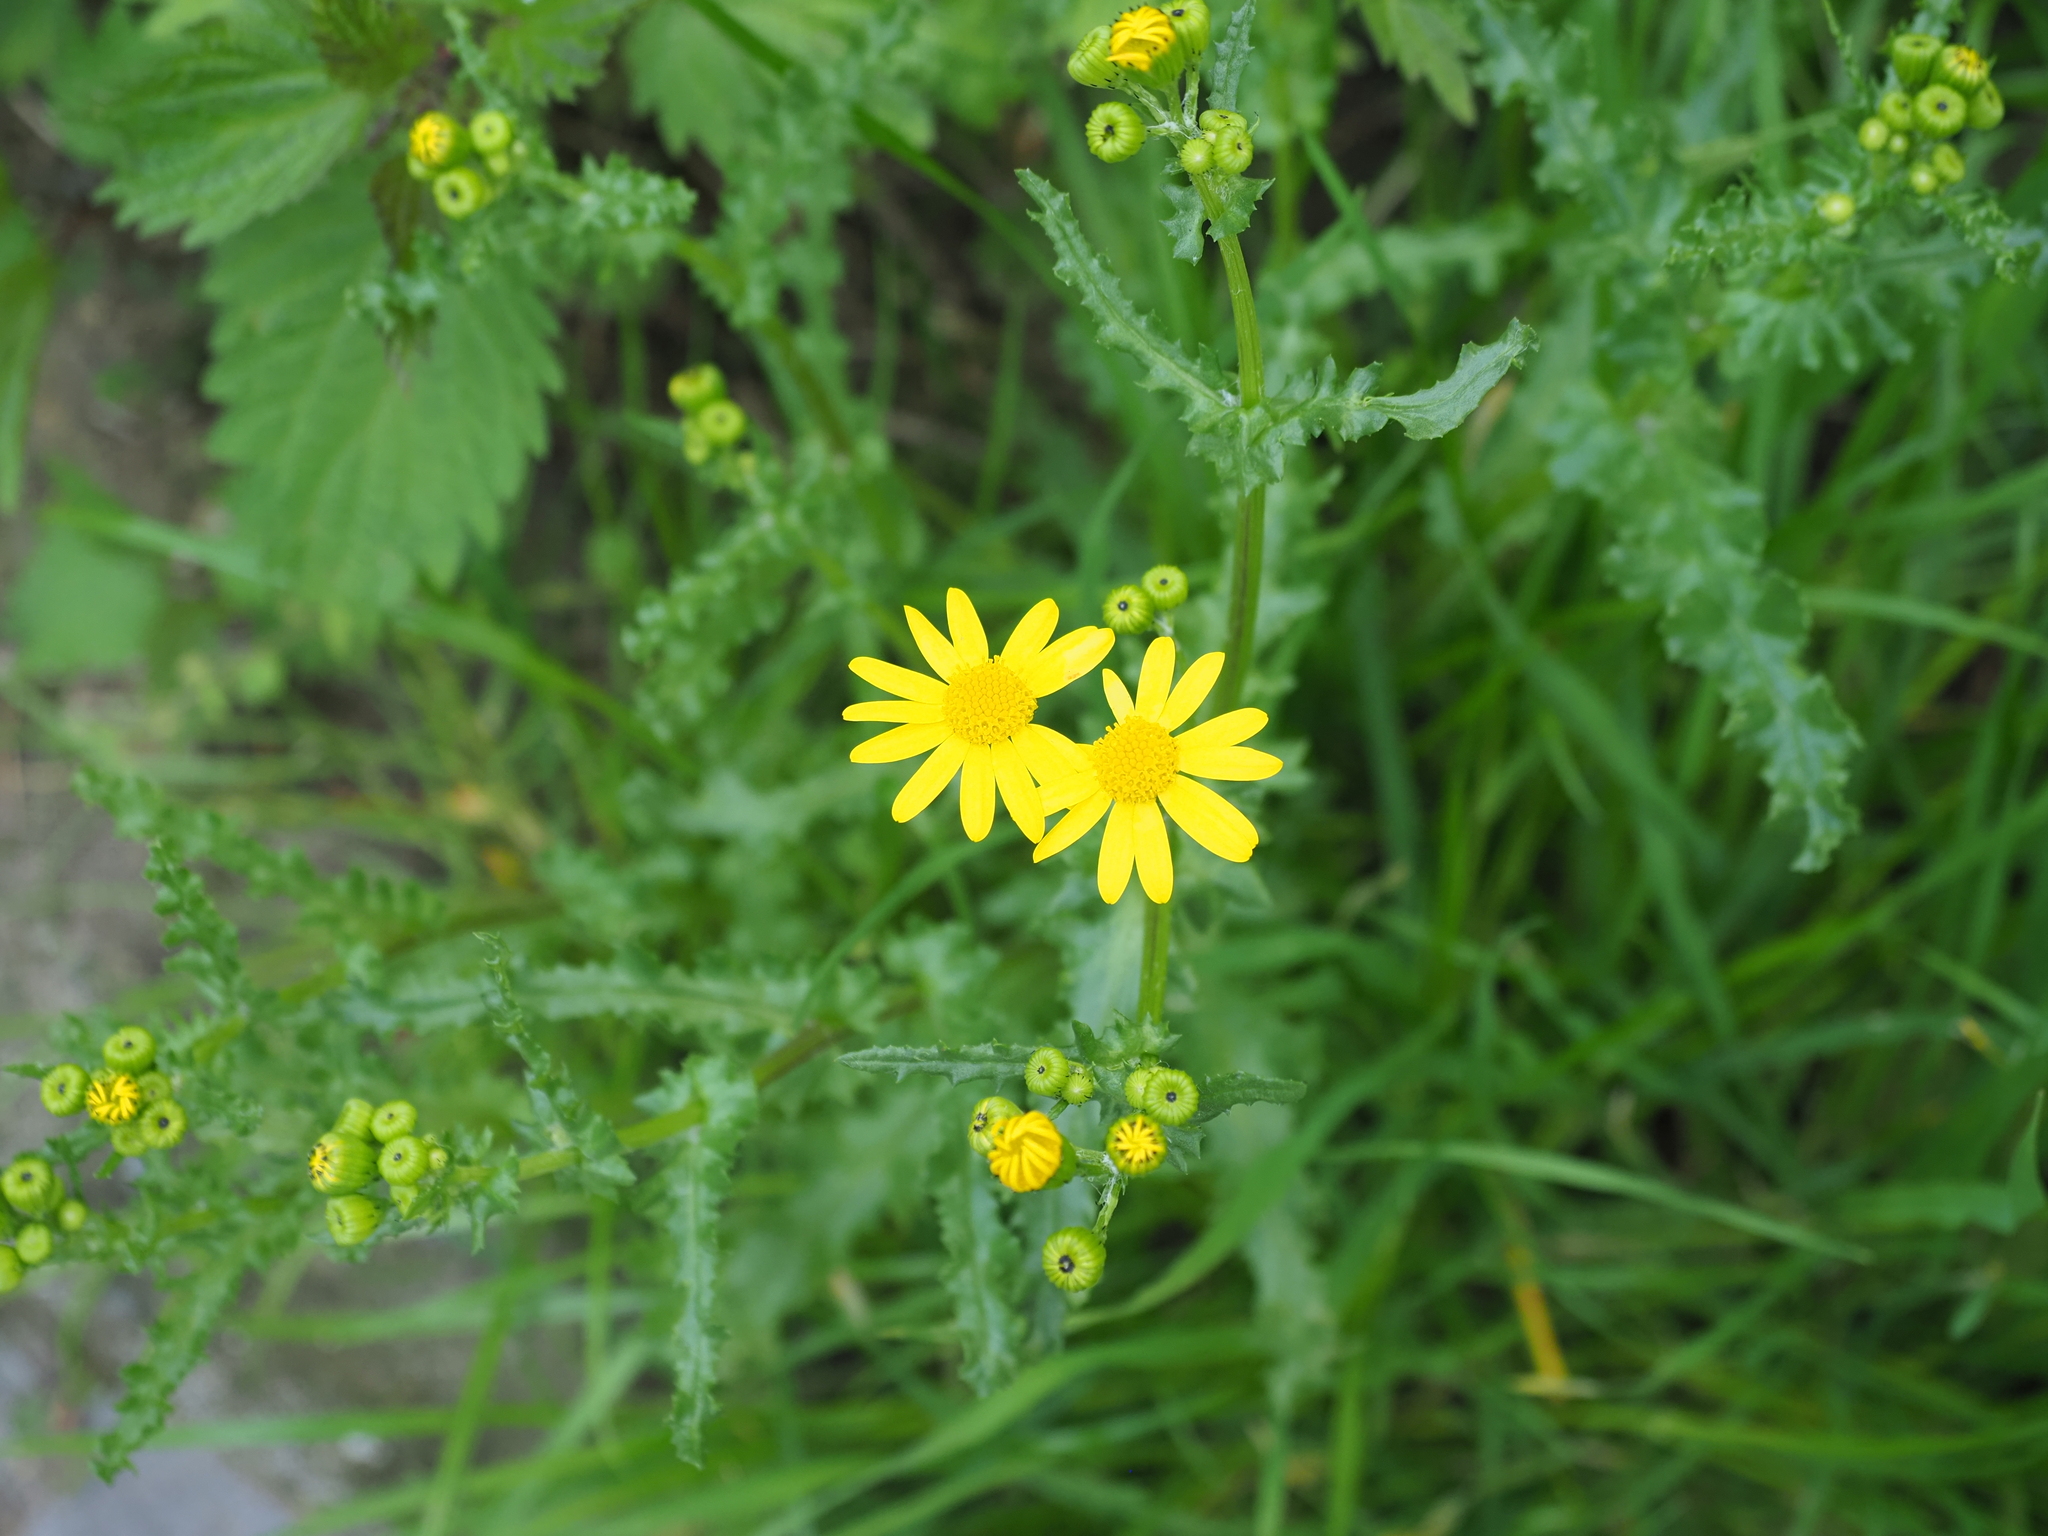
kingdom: Plantae
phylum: Tracheophyta
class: Magnoliopsida
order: Asterales
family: Asteraceae
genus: Senecio
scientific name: Senecio vernalis
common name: Eastern groundsel
